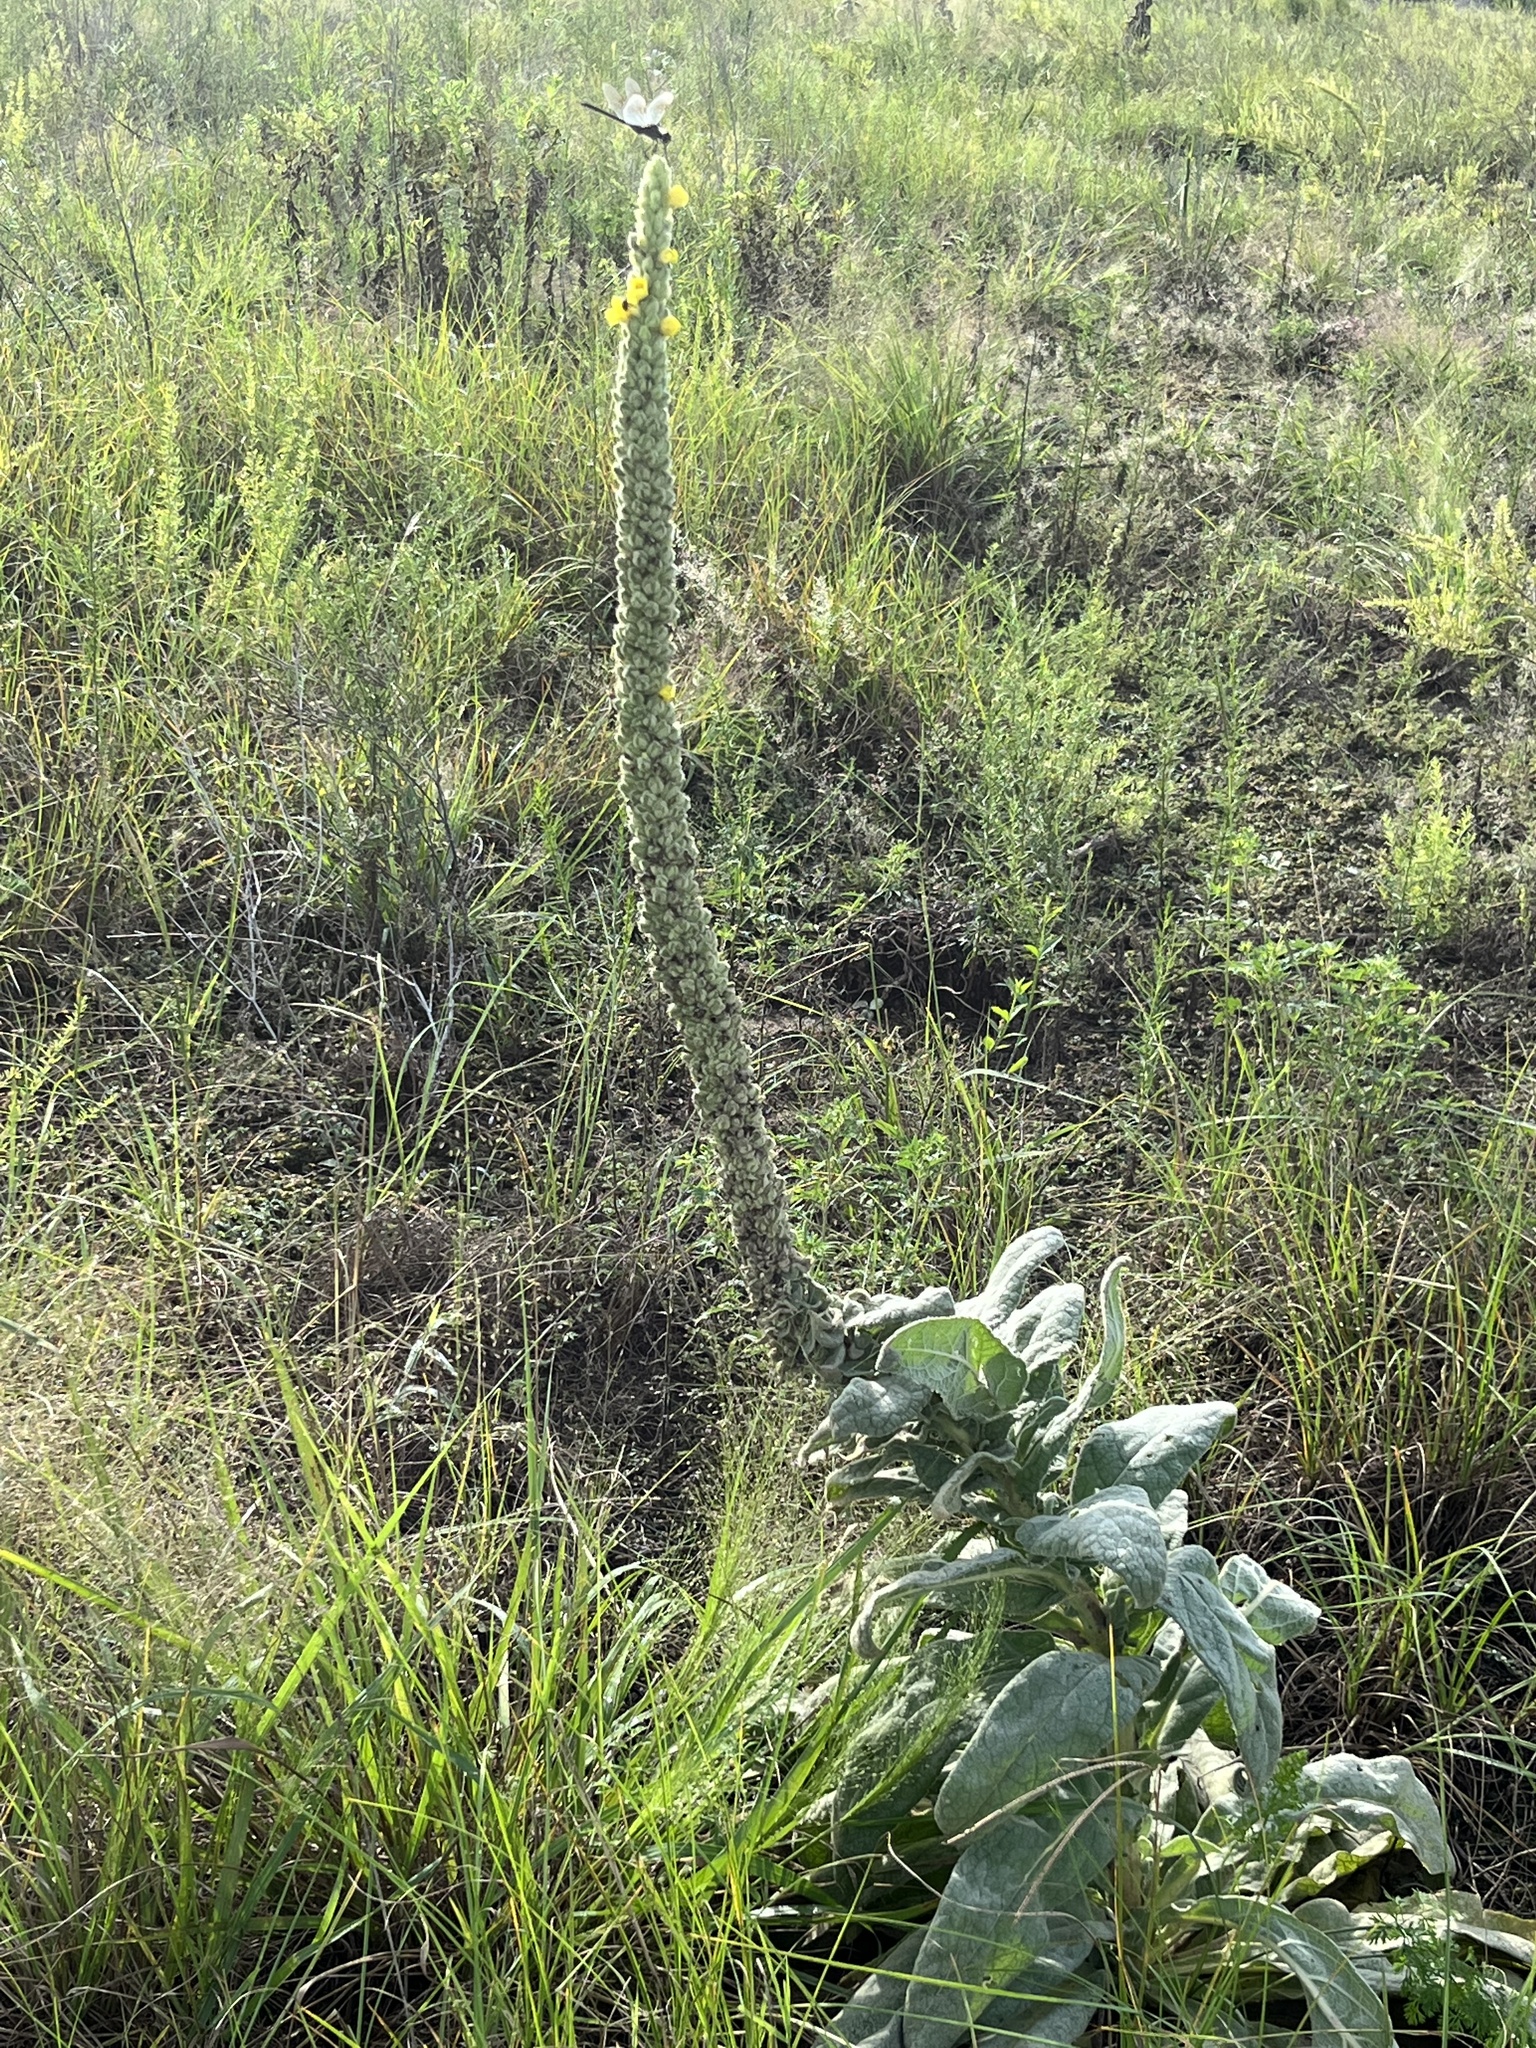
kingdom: Plantae
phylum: Tracheophyta
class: Magnoliopsida
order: Lamiales
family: Scrophulariaceae
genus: Verbascum
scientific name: Verbascum thapsus
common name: Common mullein
